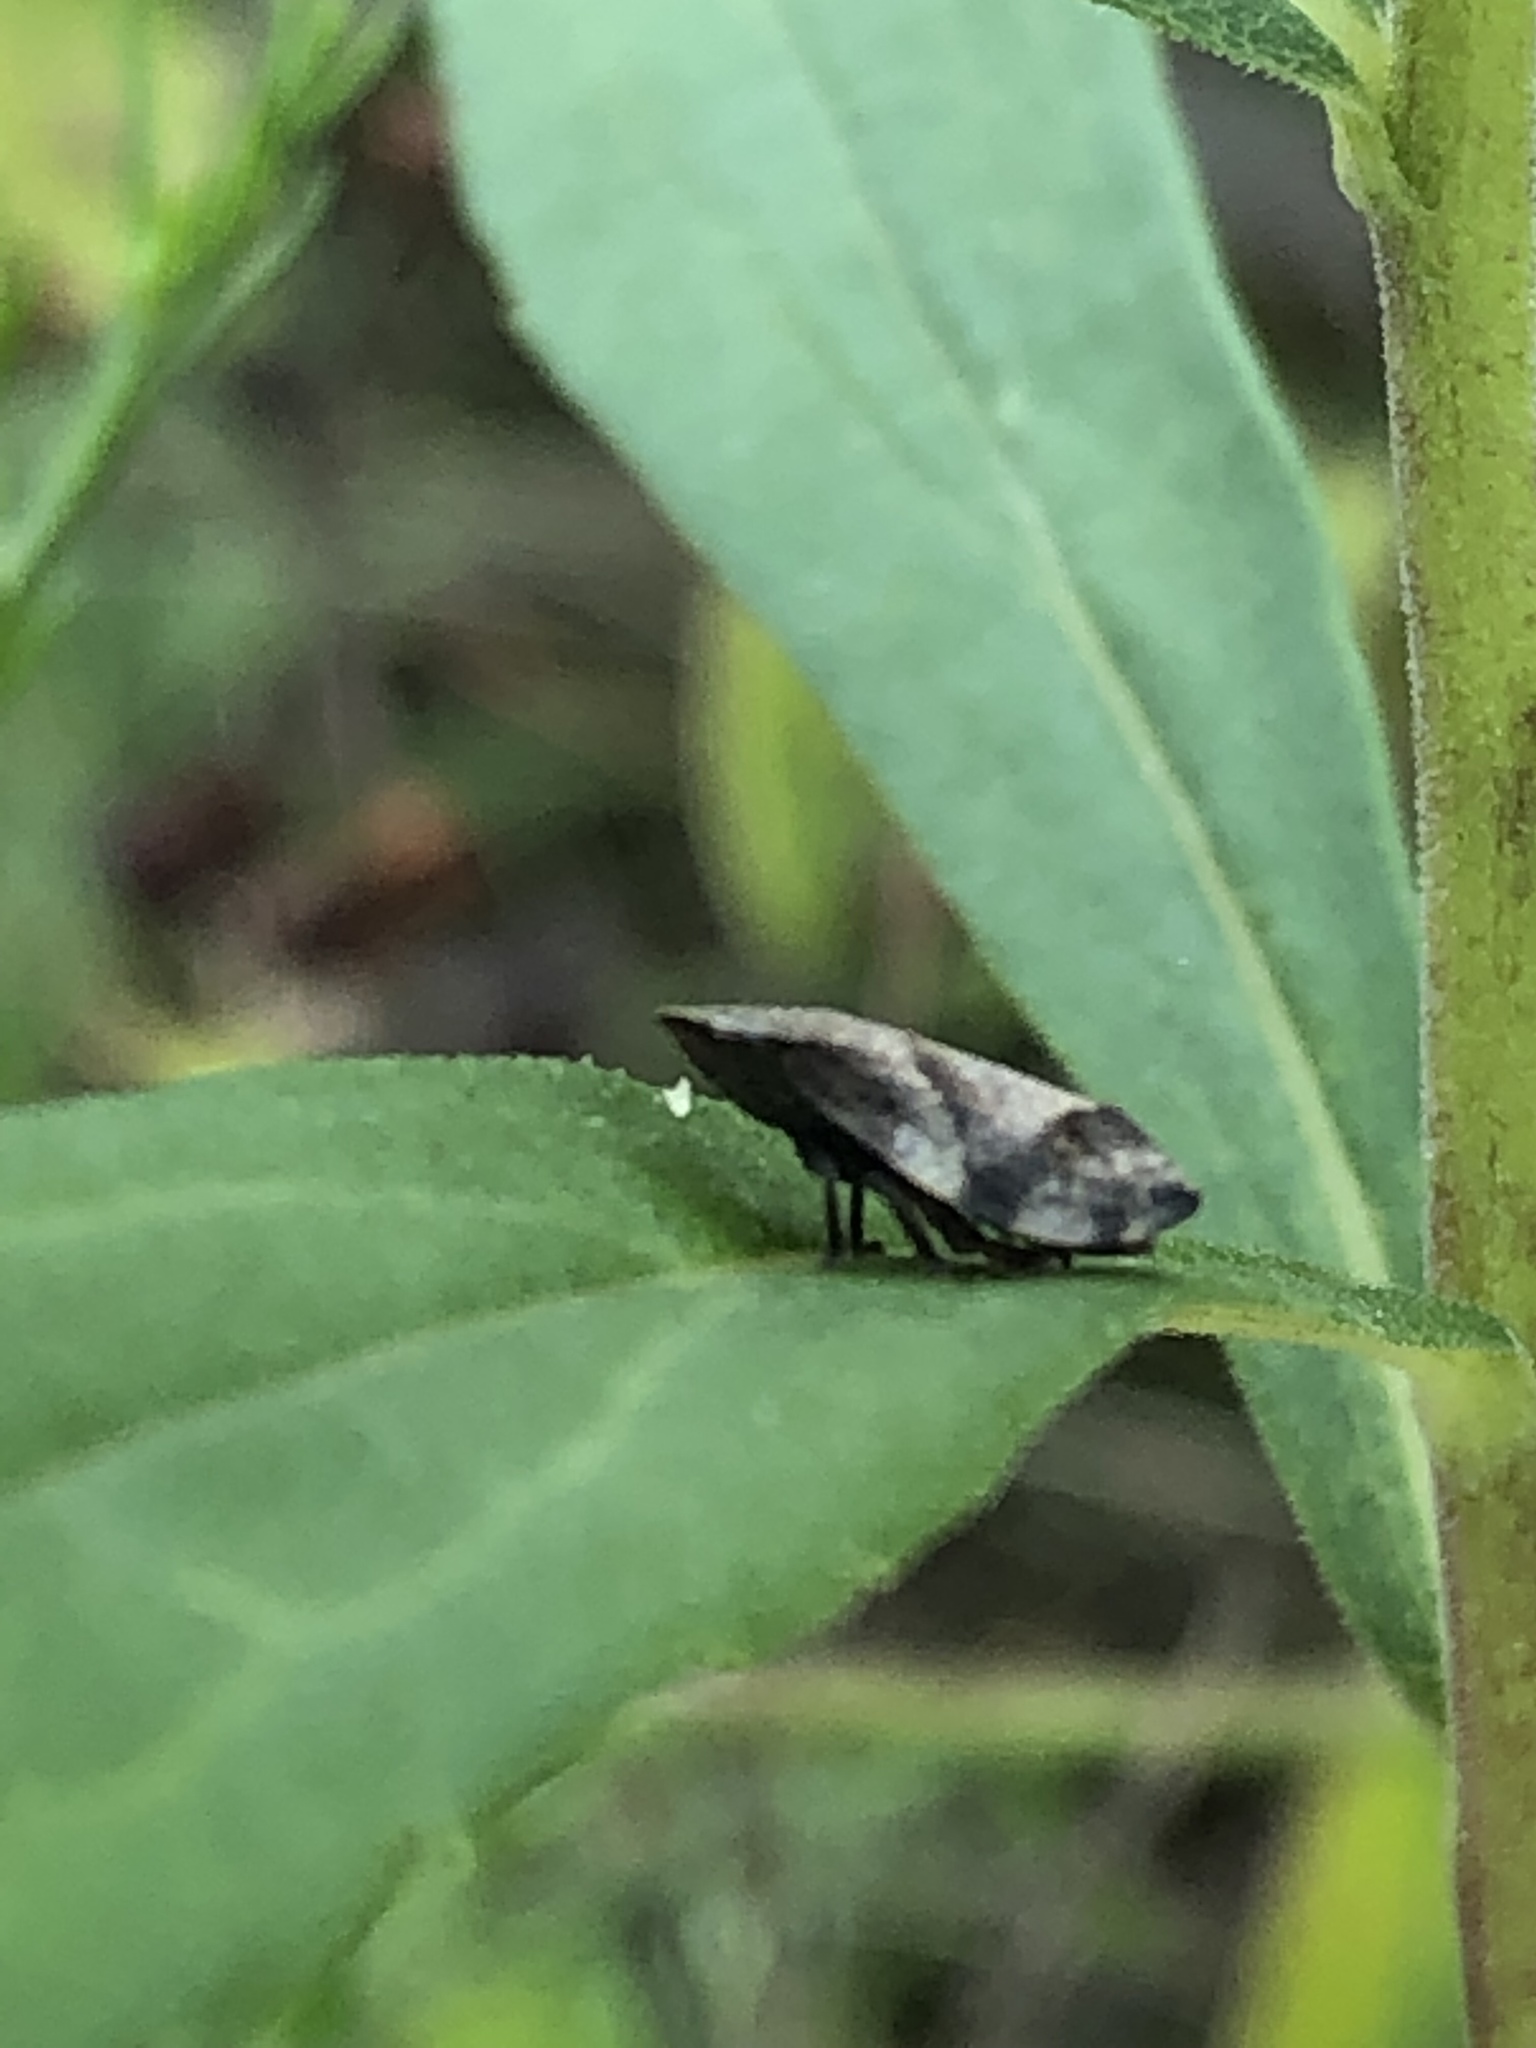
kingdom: Animalia
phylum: Arthropoda
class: Insecta
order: Hemiptera
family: Aphrophoridae
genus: Lepyronia
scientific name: Lepyronia quadrangularis
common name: Diamond-backed spittlebug
